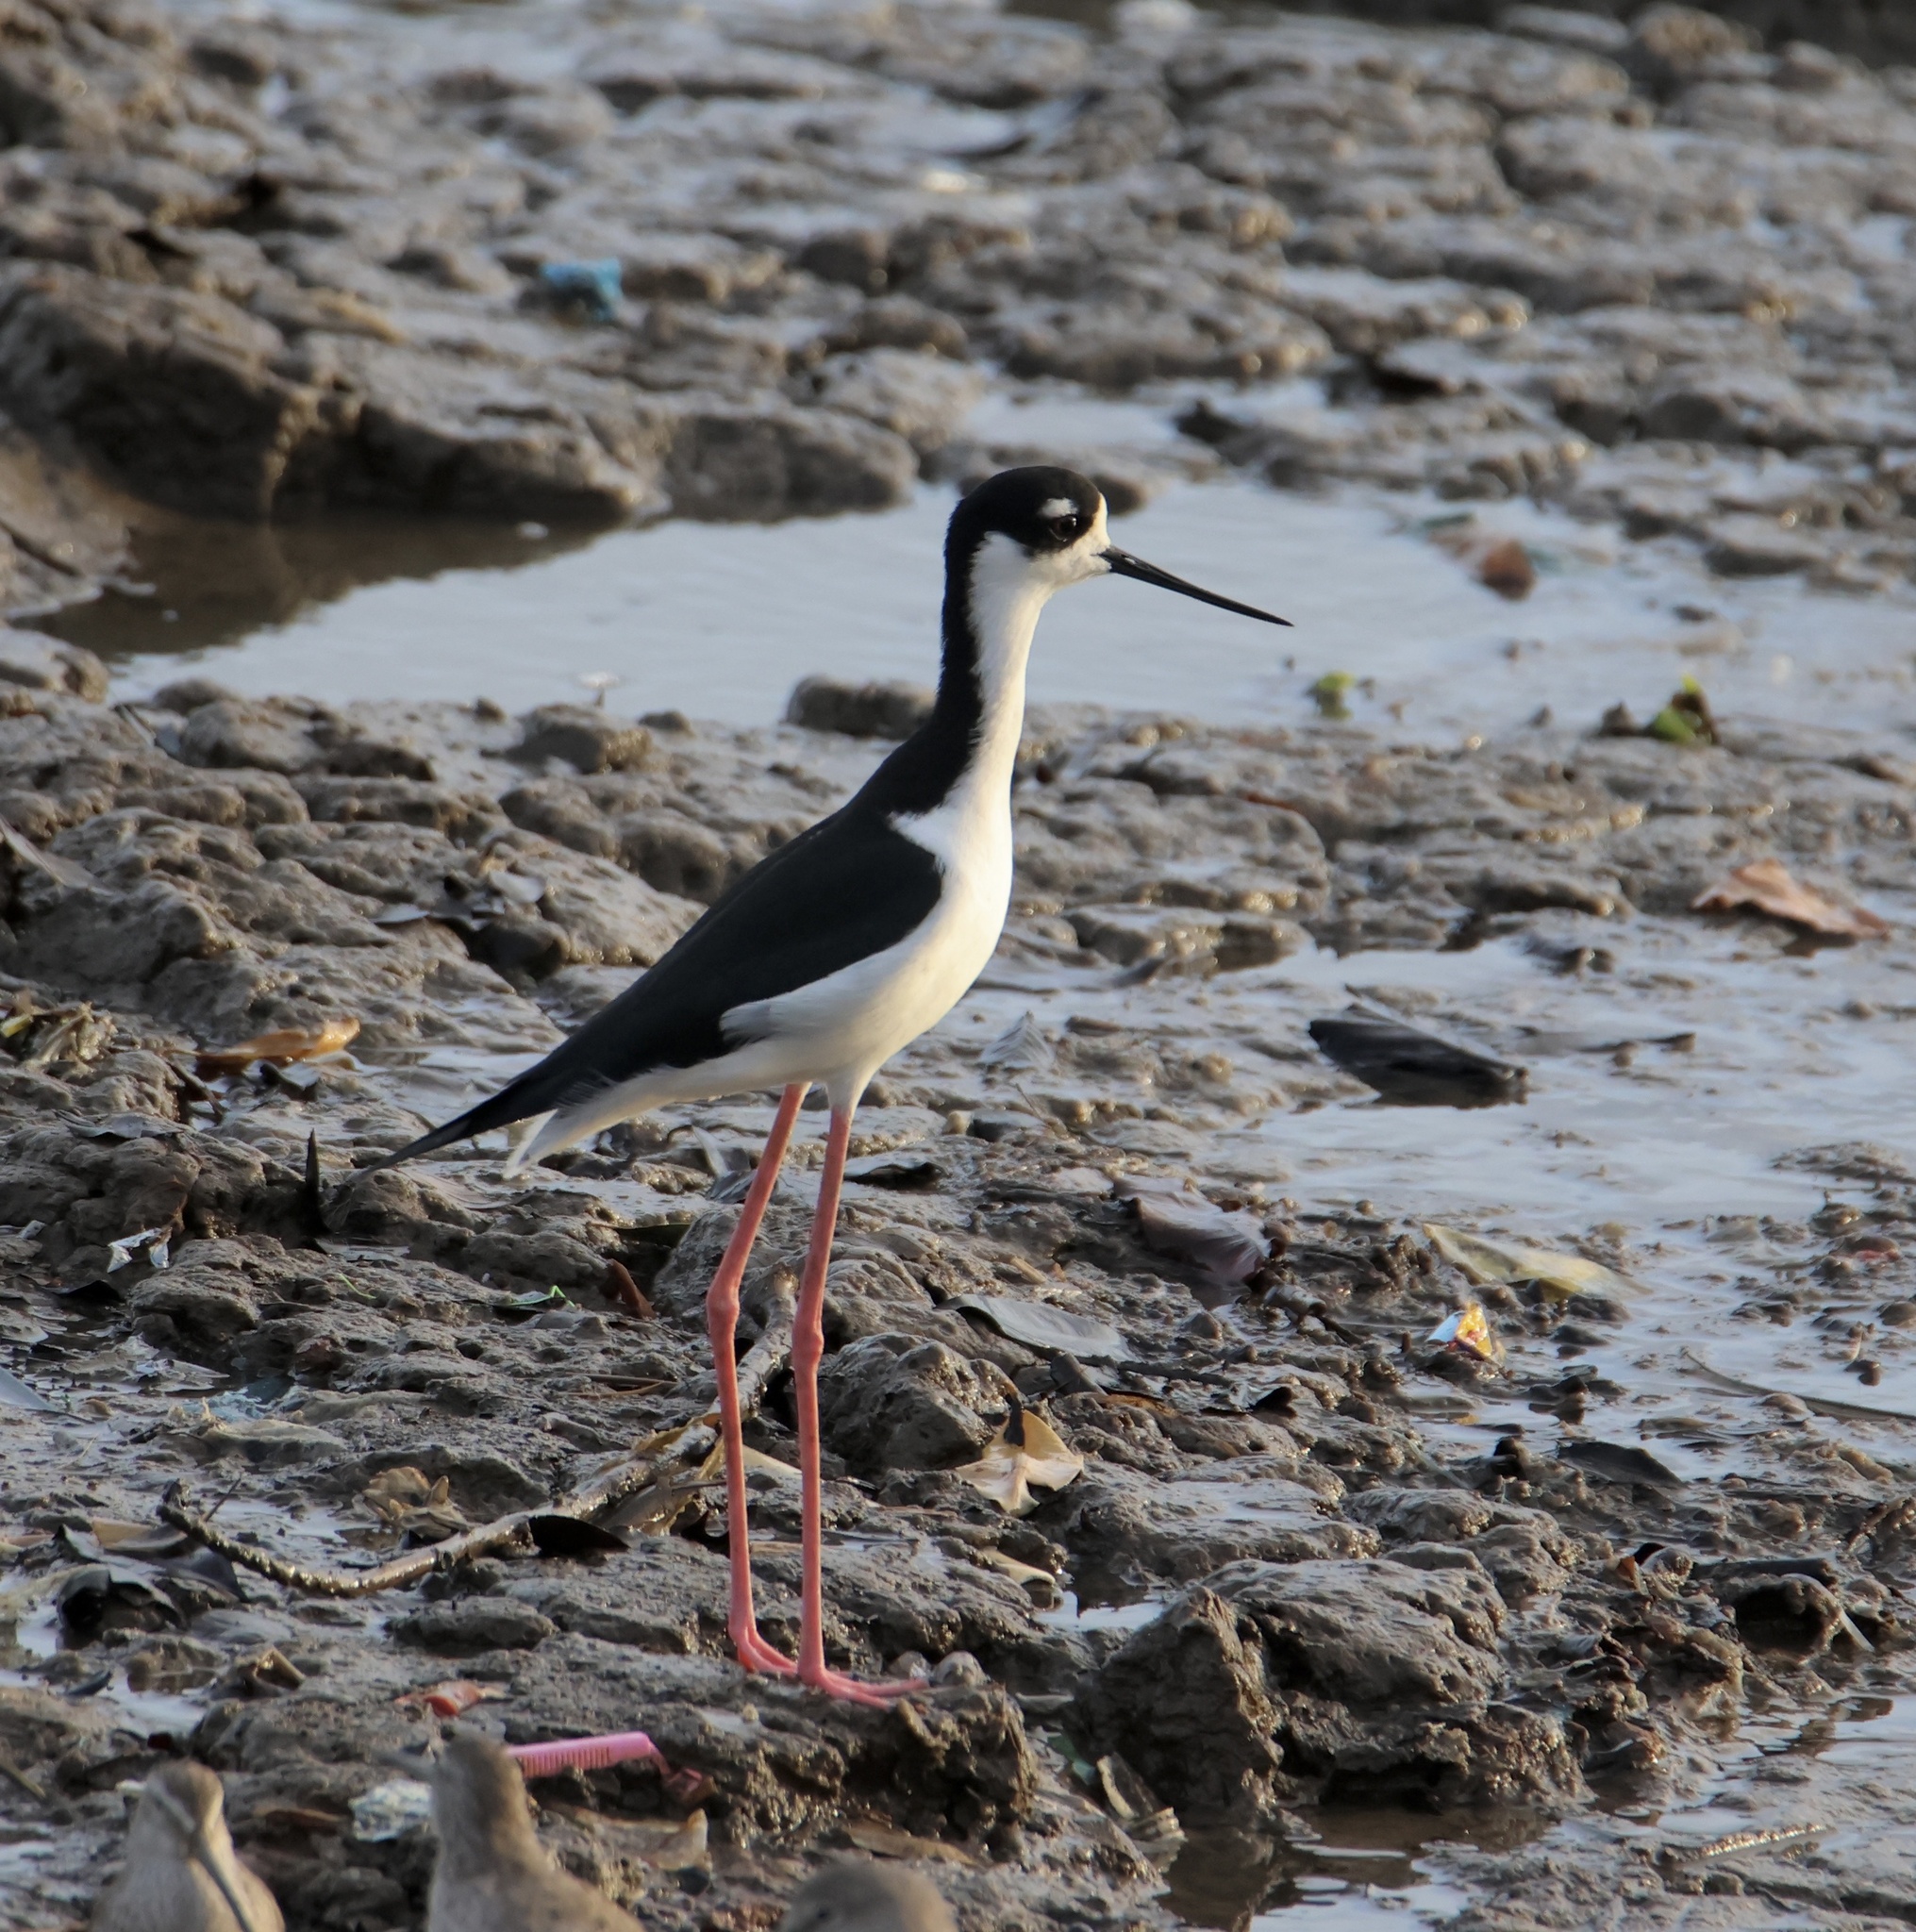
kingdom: Animalia
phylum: Chordata
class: Aves
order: Charadriiformes
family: Recurvirostridae
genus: Himantopus
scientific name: Himantopus mexicanus
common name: Black-necked stilt
